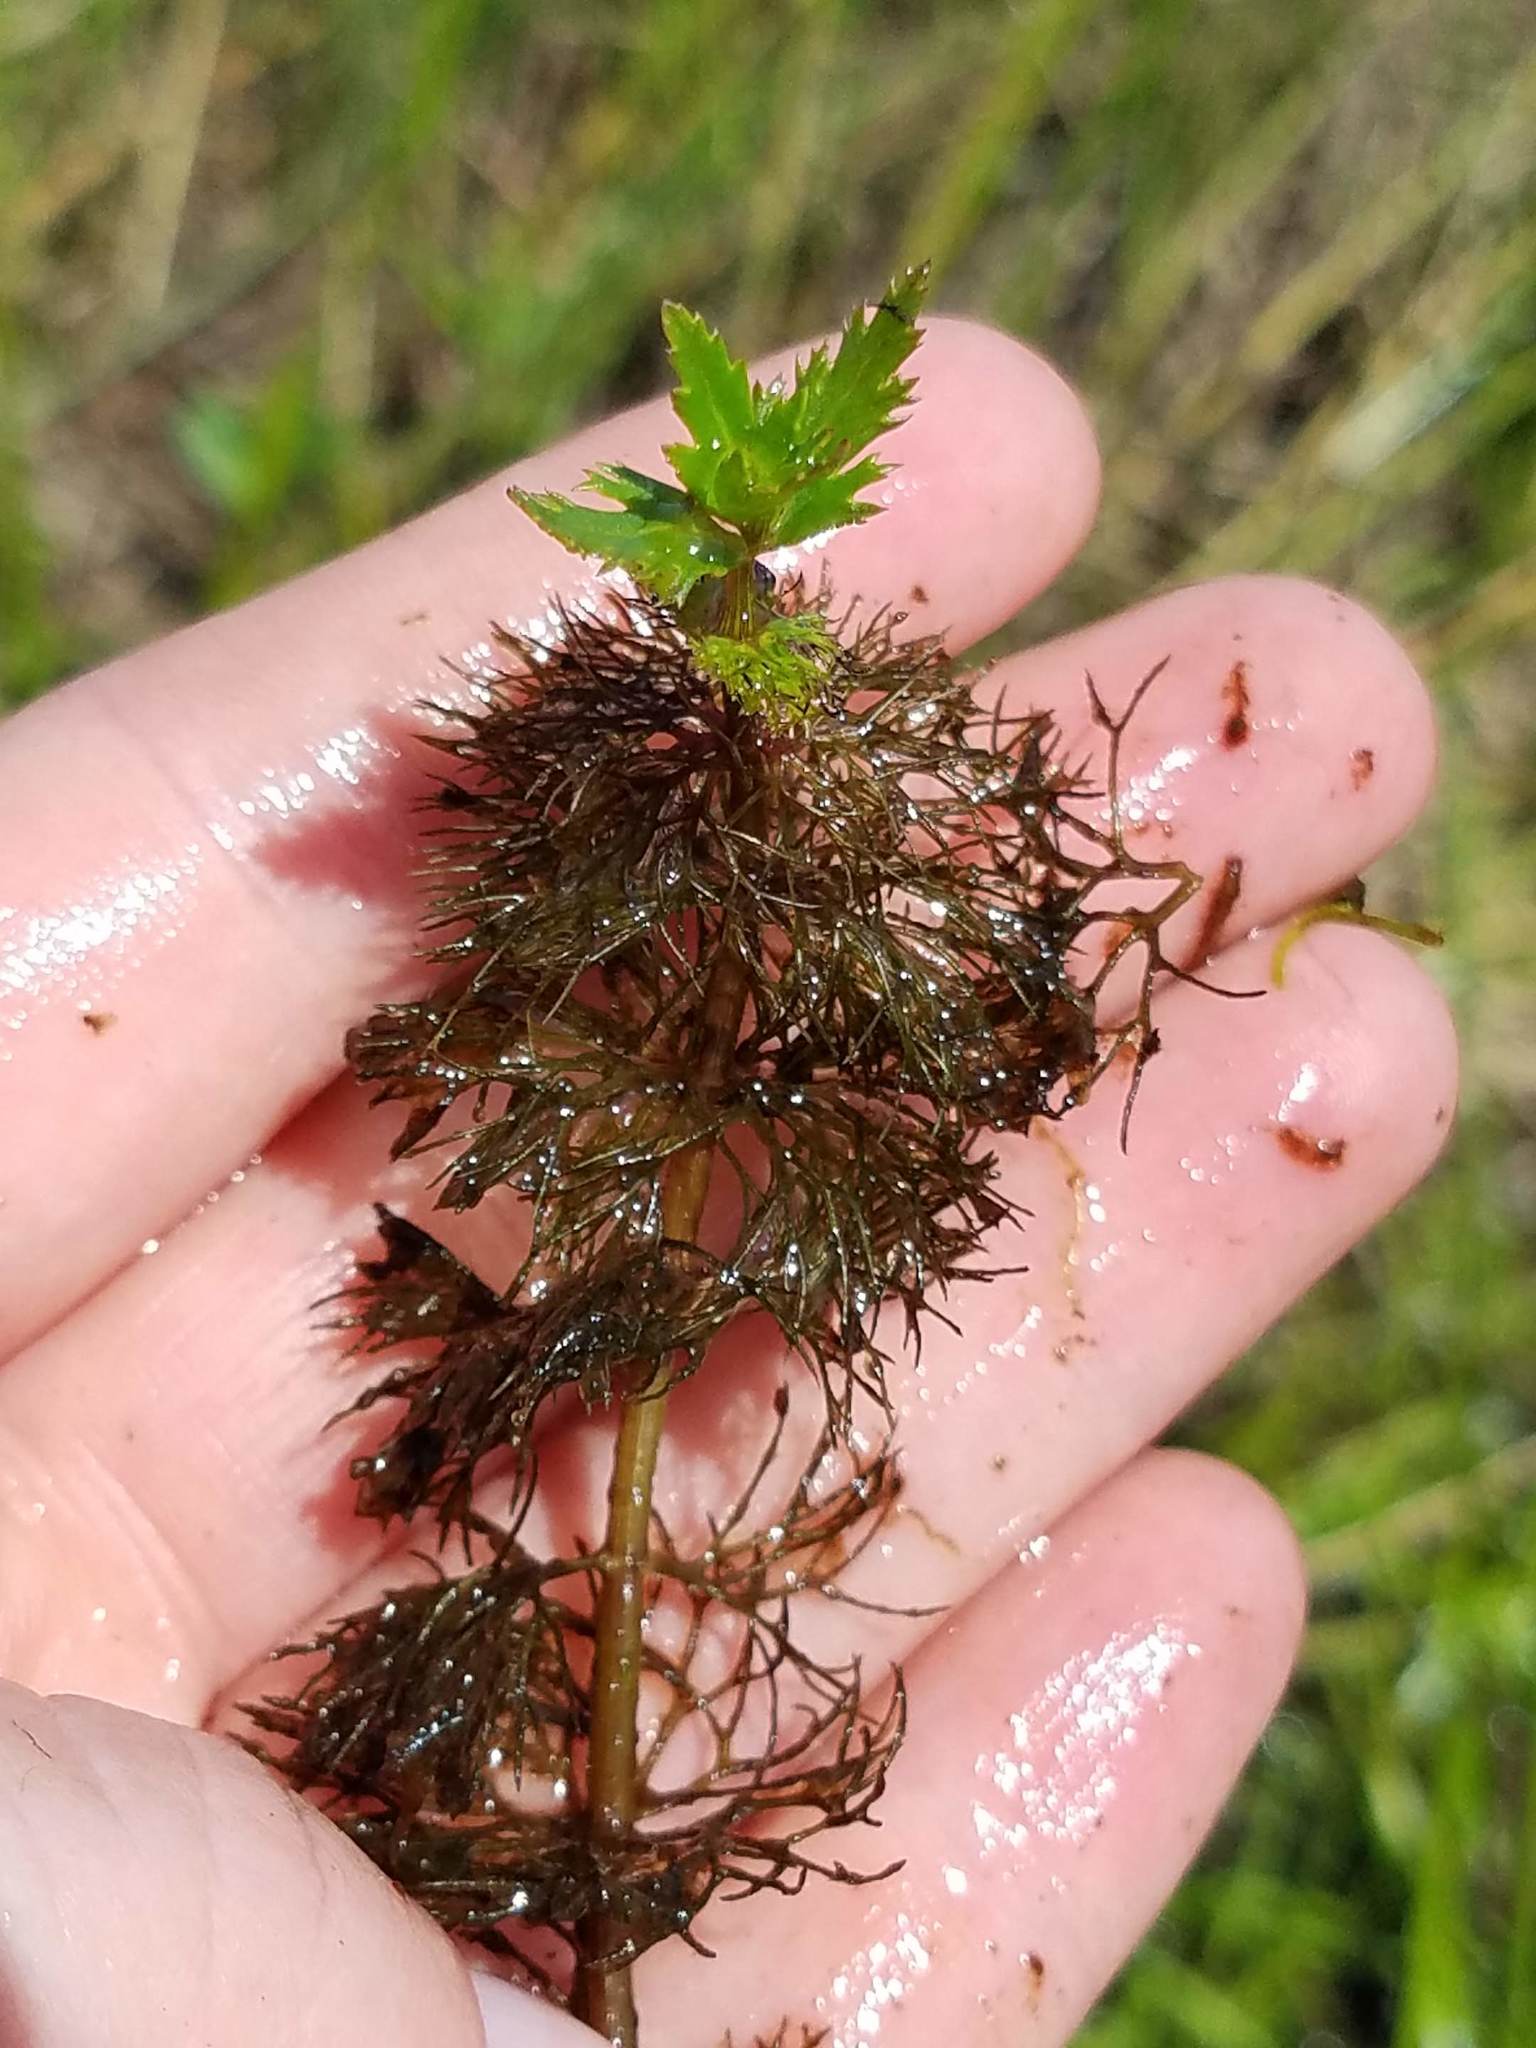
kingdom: Plantae
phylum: Tracheophyta
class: Magnoliopsida
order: Asterales
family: Asteraceae
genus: Bidens
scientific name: Bidens beckii
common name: Beck's beggarticks
